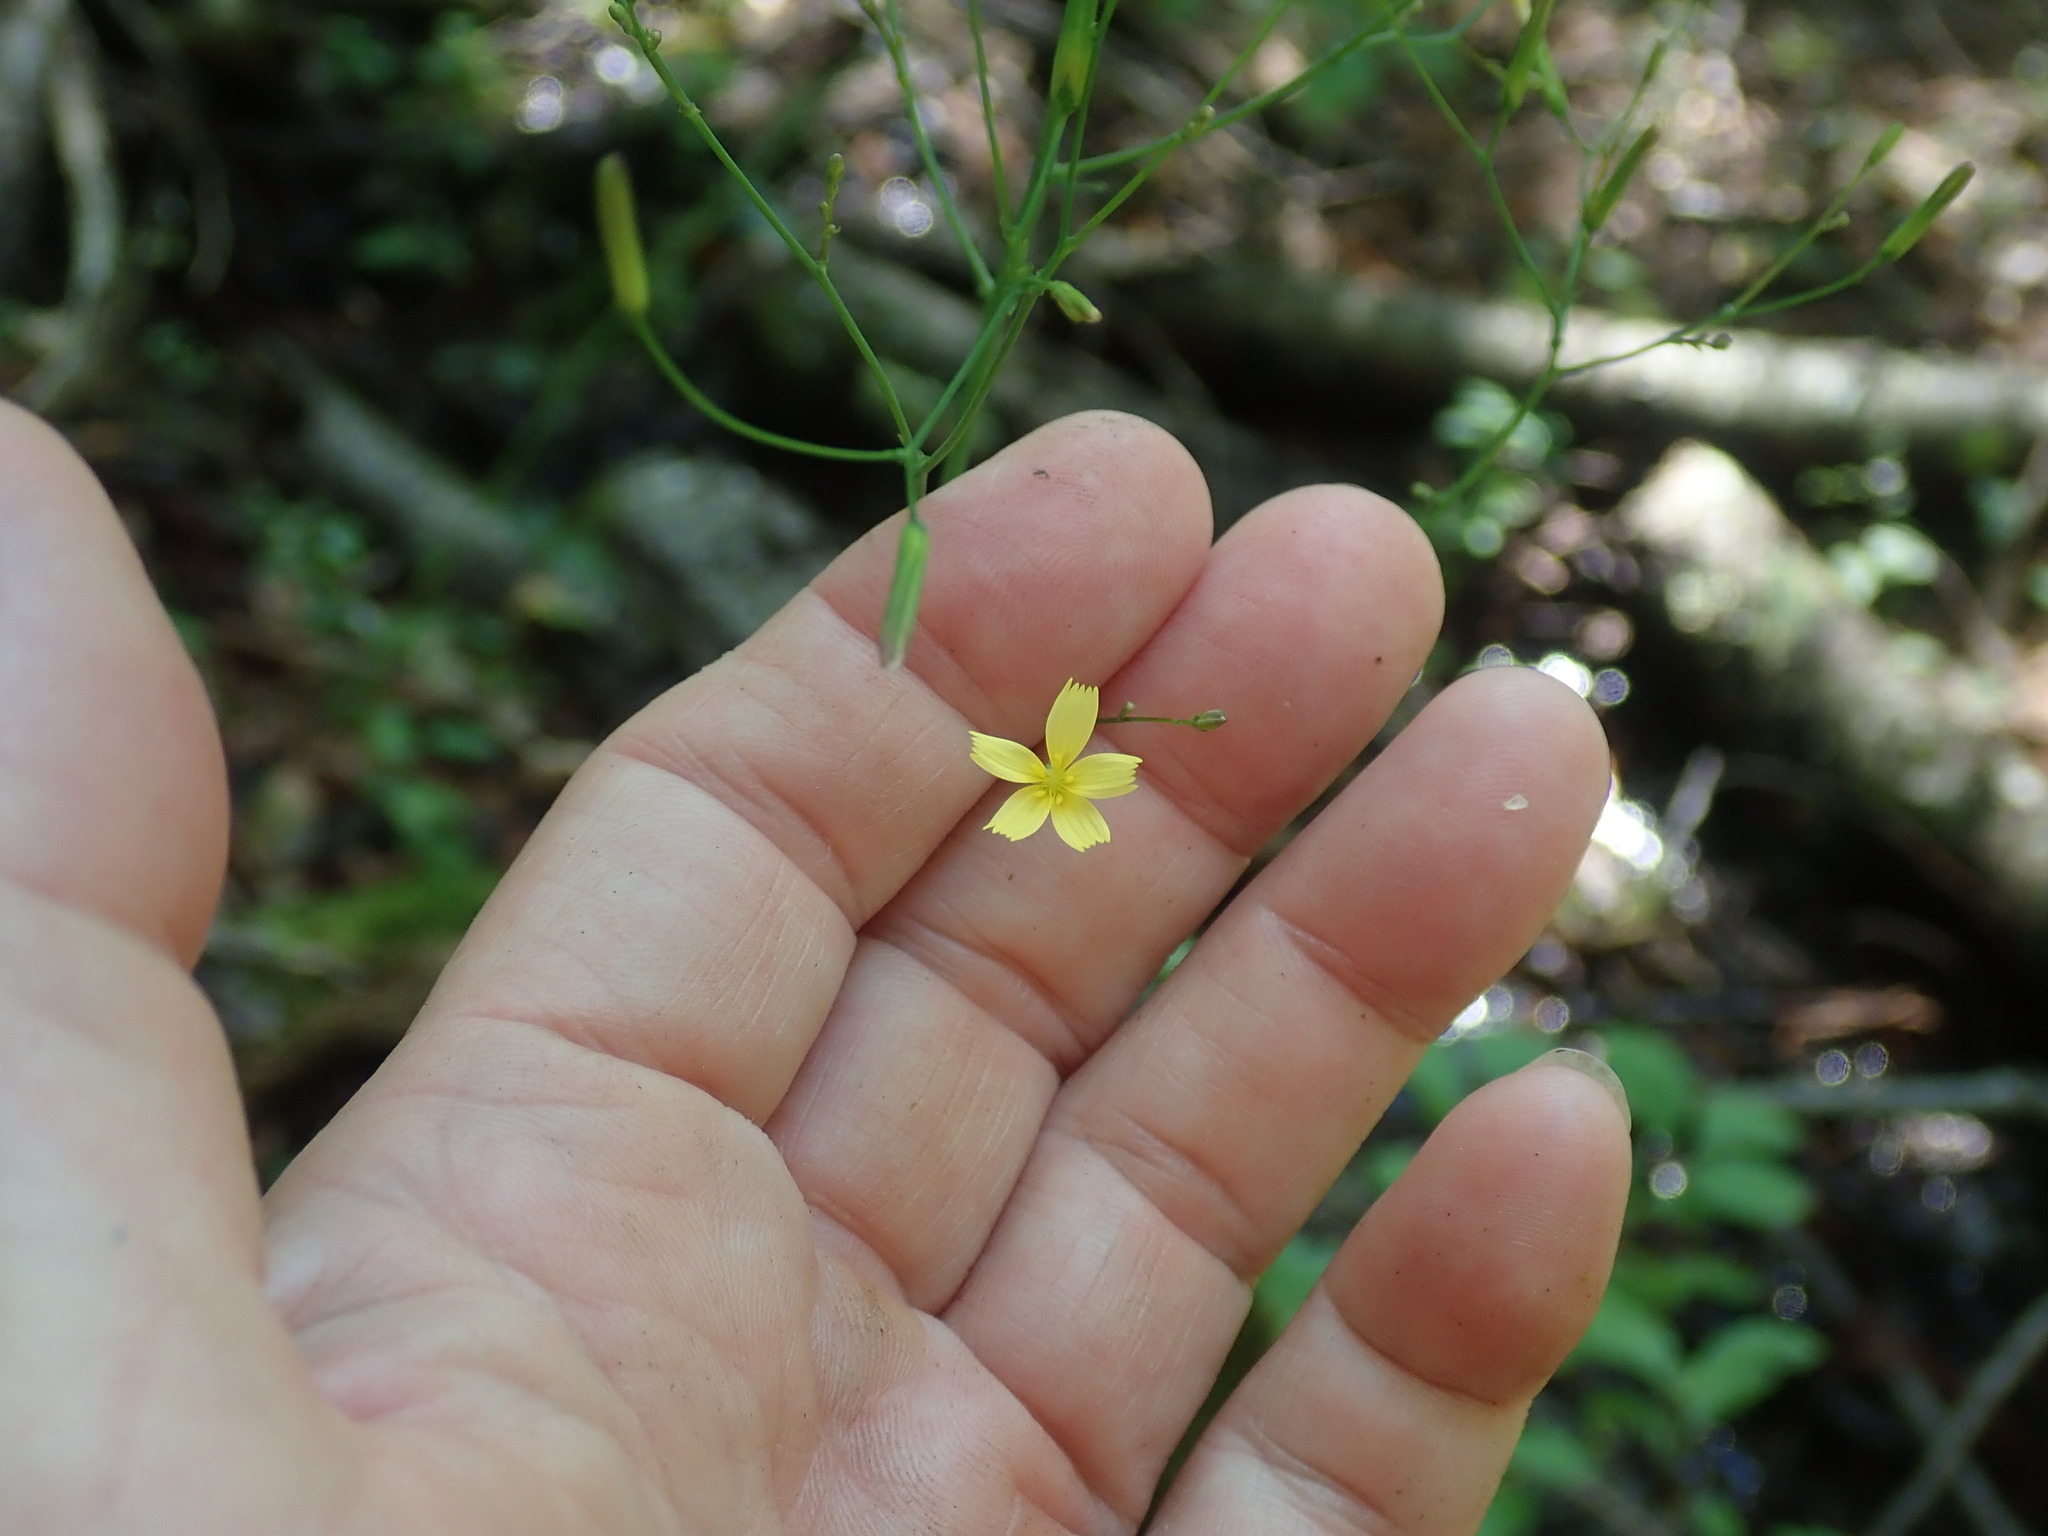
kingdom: Plantae
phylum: Tracheophyta
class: Magnoliopsida
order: Asterales
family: Asteraceae
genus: Mycelis
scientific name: Mycelis muralis
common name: Wall lettuce
